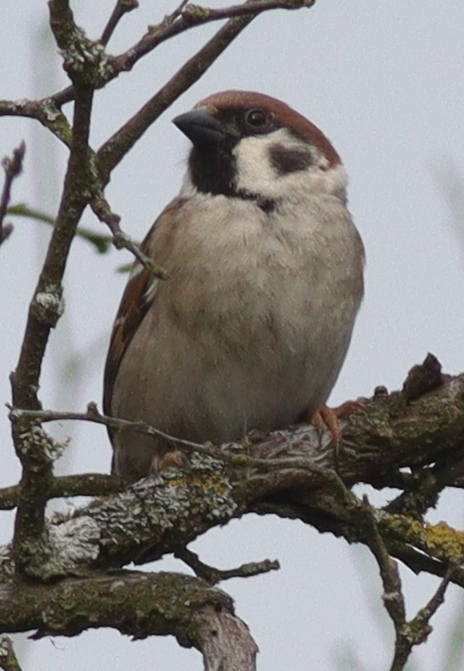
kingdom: Animalia
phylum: Chordata
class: Aves
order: Passeriformes
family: Passeridae
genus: Passer
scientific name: Passer montanus
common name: Eurasian tree sparrow
